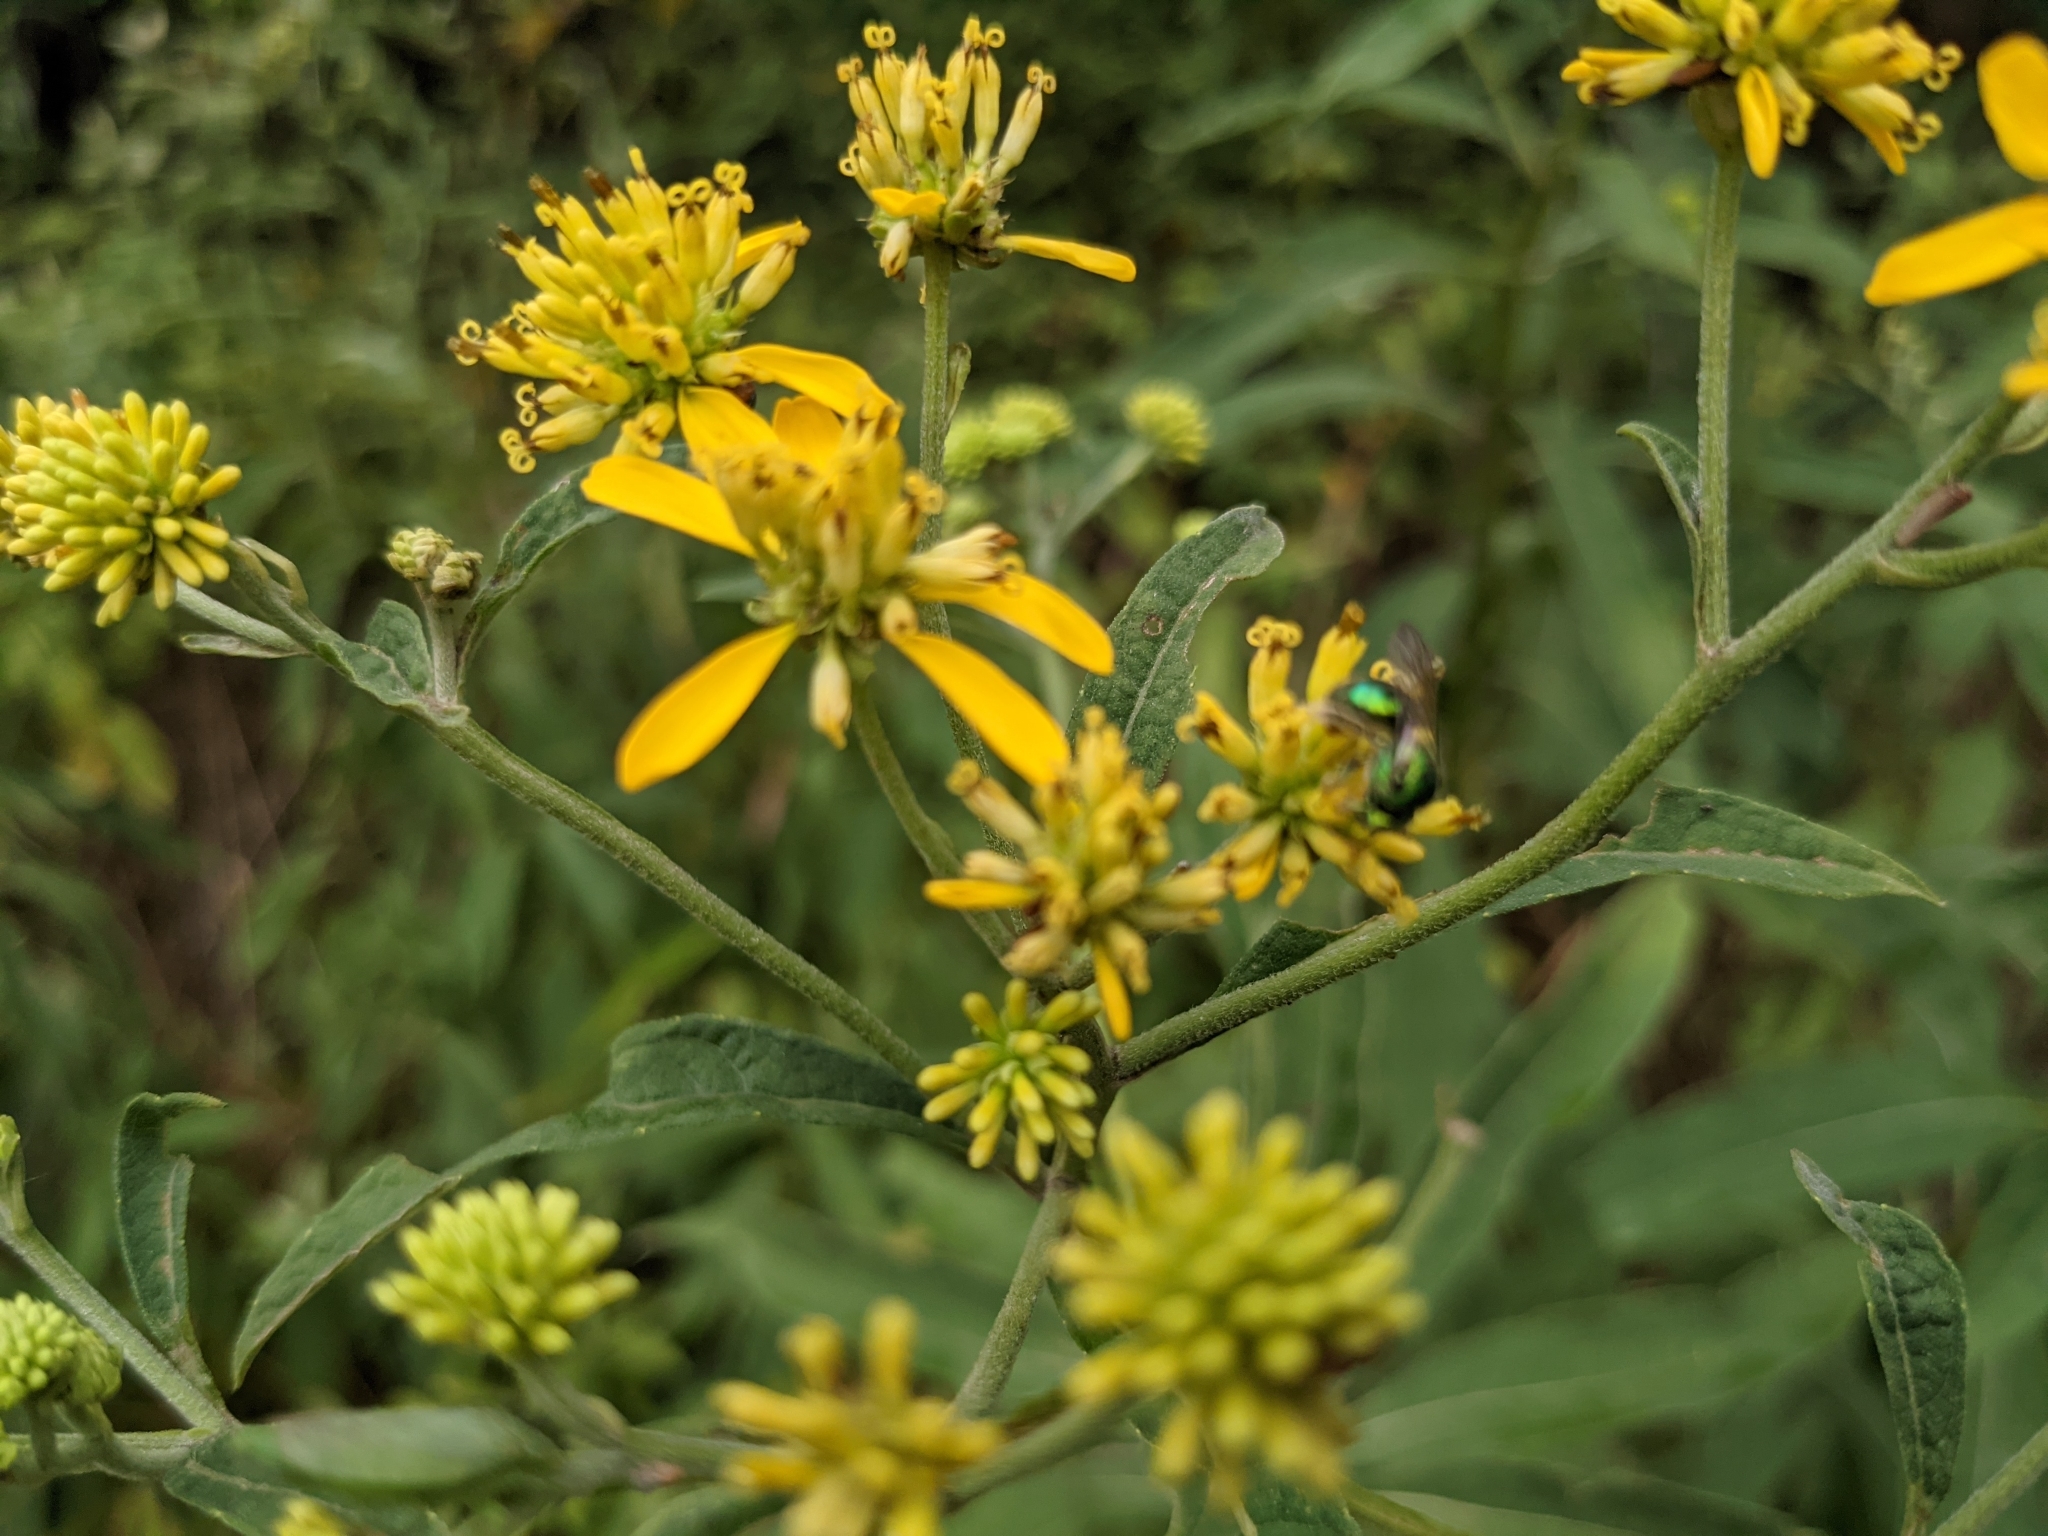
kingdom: Plantae
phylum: Tracheophyta
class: Magnoliopsida
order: Asterales
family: Asteraceae
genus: Verbesina
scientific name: Verbesina alternifolia
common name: Wingstem
